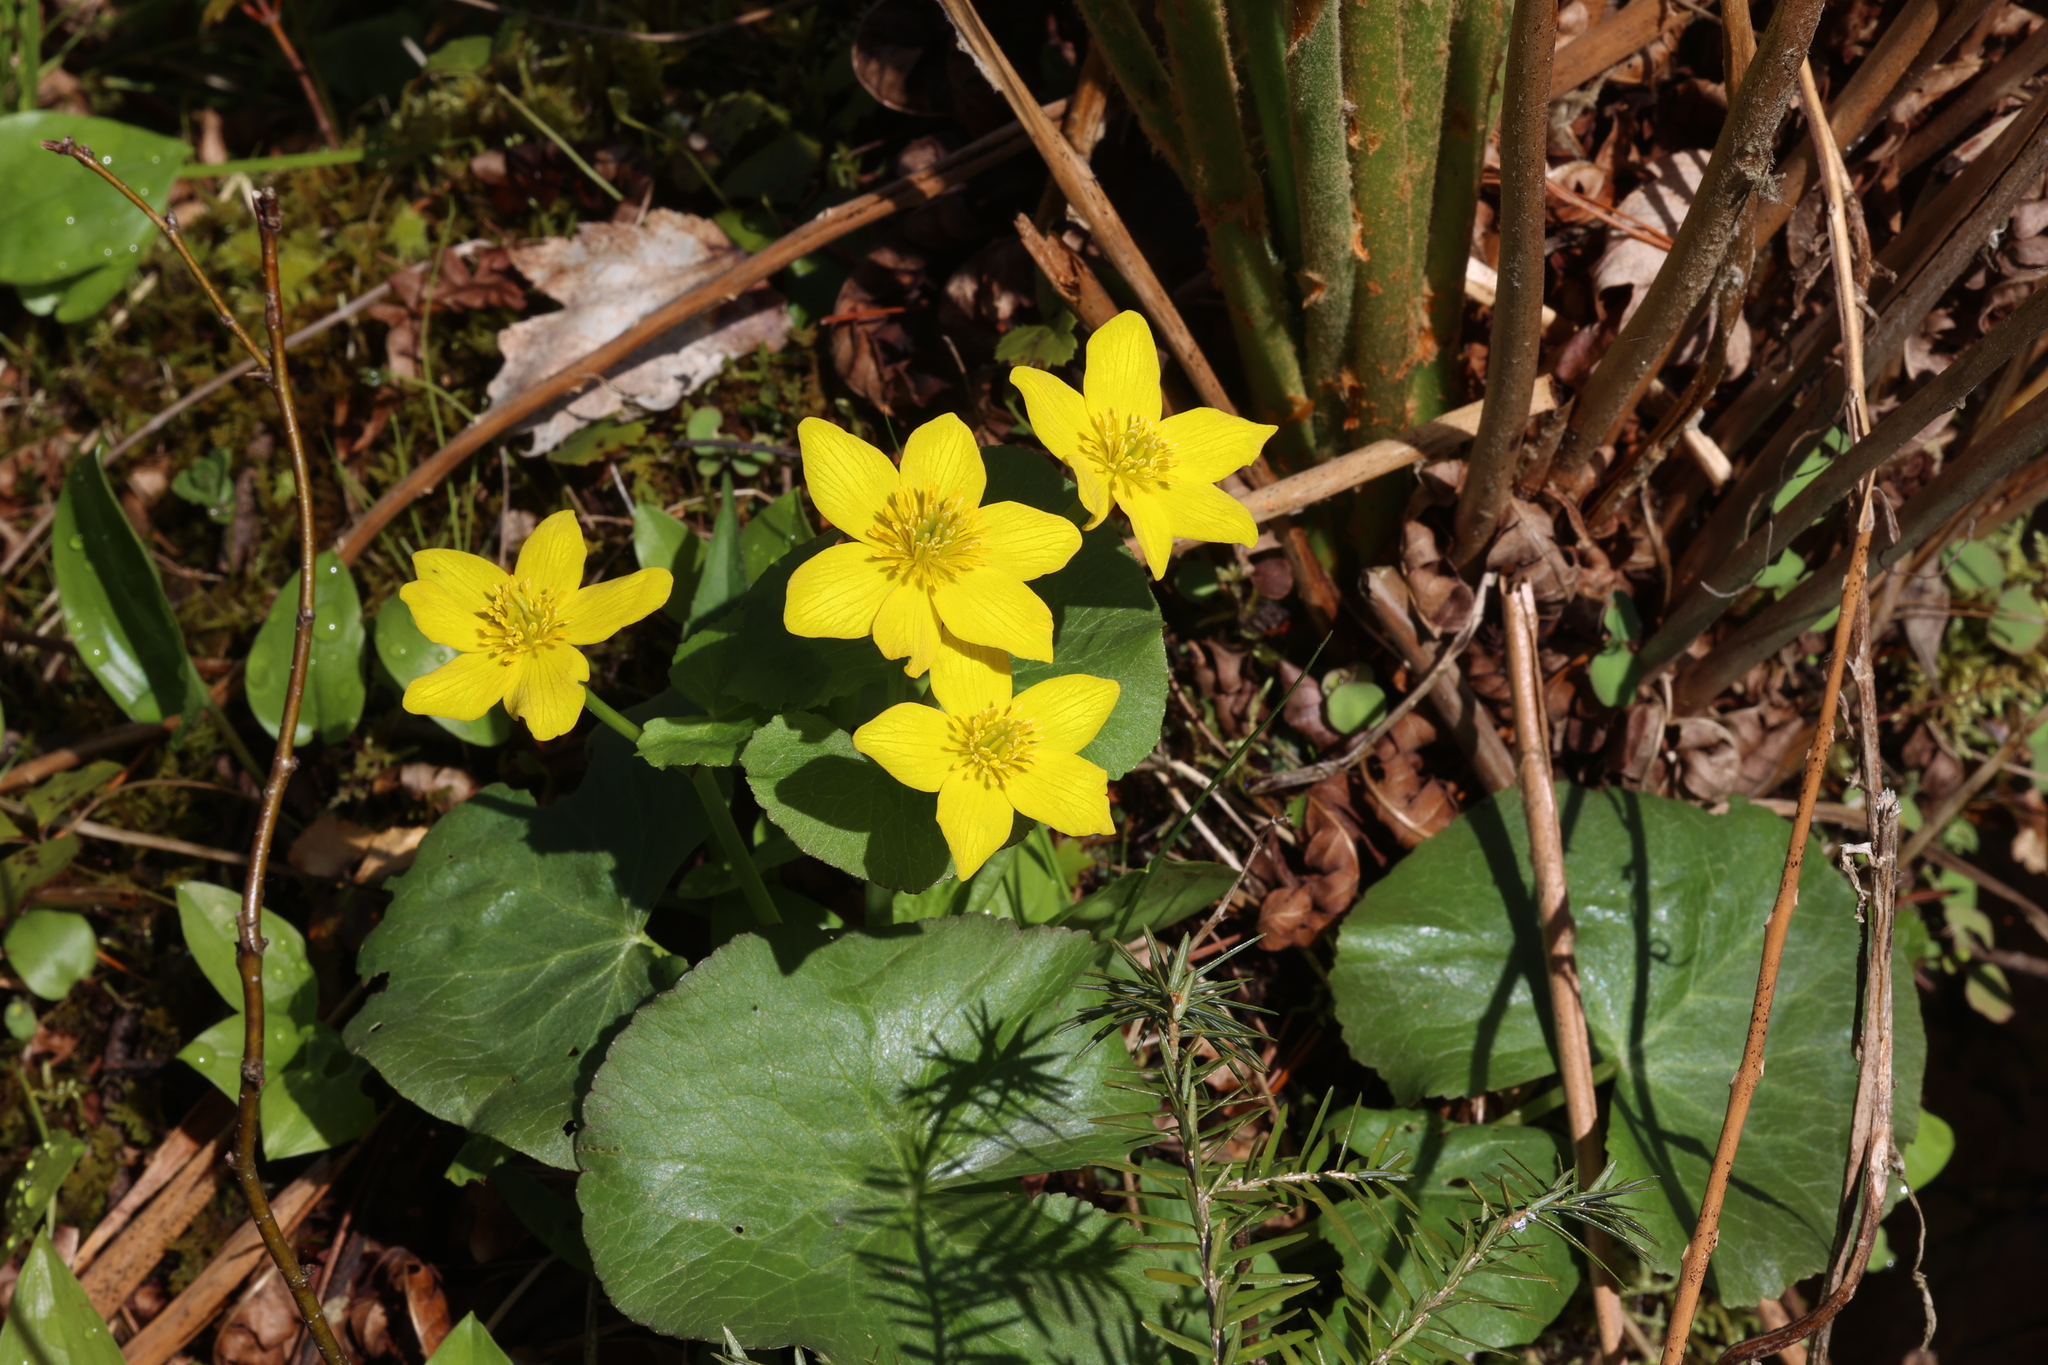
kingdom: Plantae
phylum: Tracheophyta
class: Magnoliopsida
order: Ranunculales
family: Ranunculaceae
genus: Caltha
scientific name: Caltha palustris
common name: Marsh marigold
